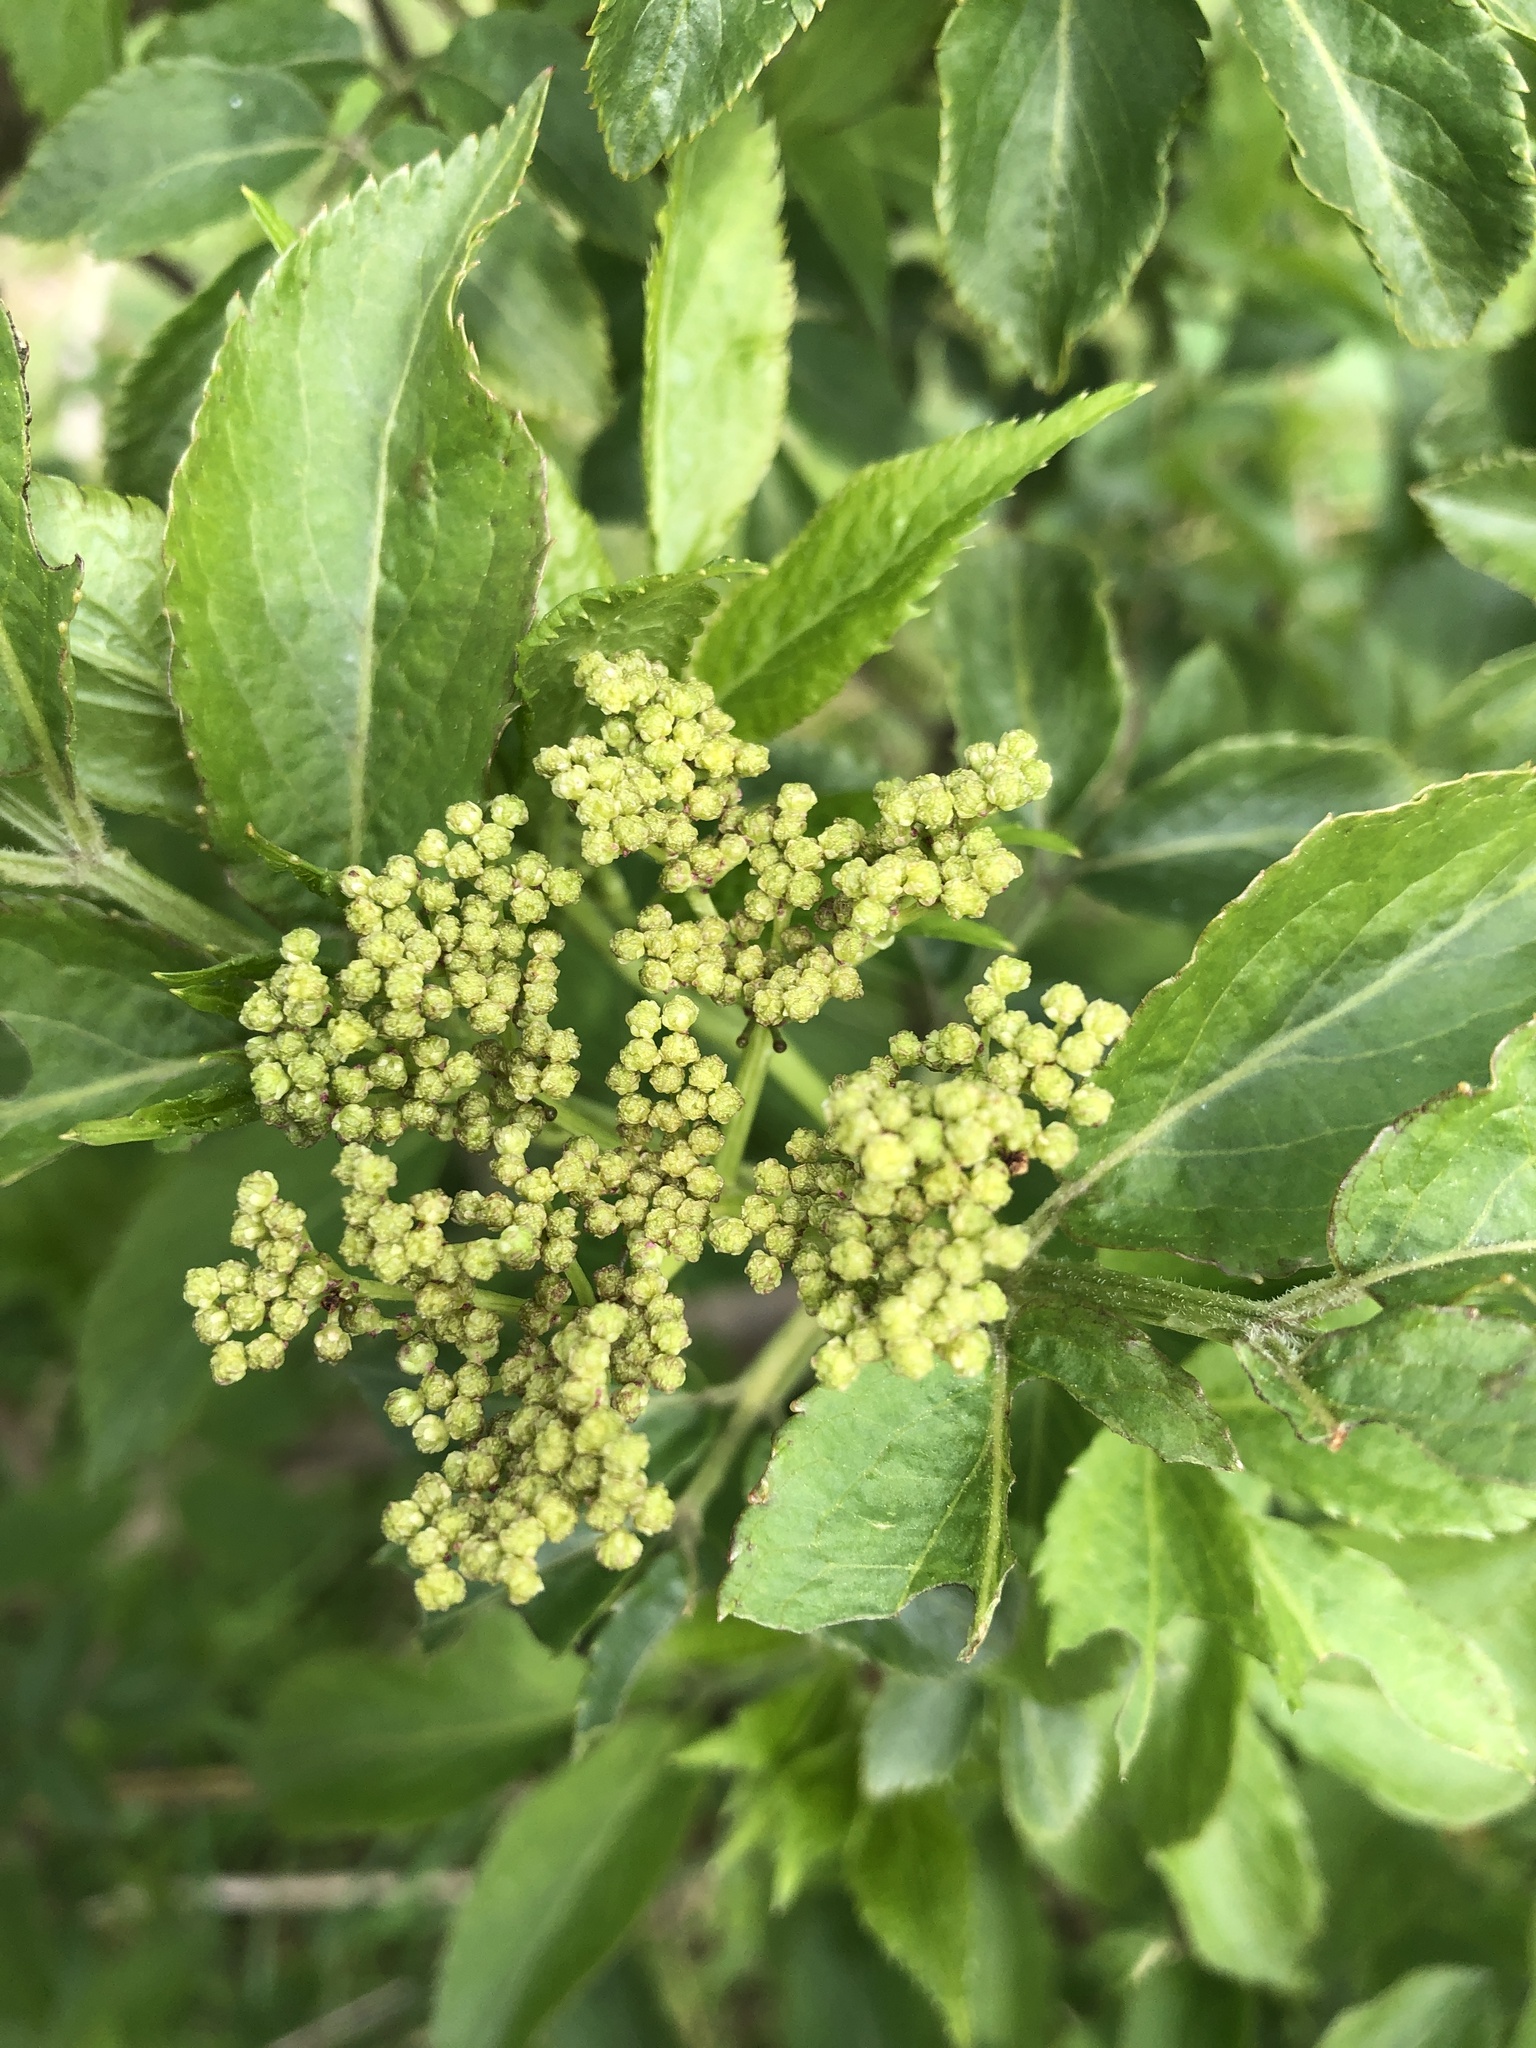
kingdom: Plantae
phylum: Tracheophyta
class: Magnoliopsida
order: Dipsacales
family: Viburnaceae
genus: Sambucus
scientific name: Sambucus nigra
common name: Elder
